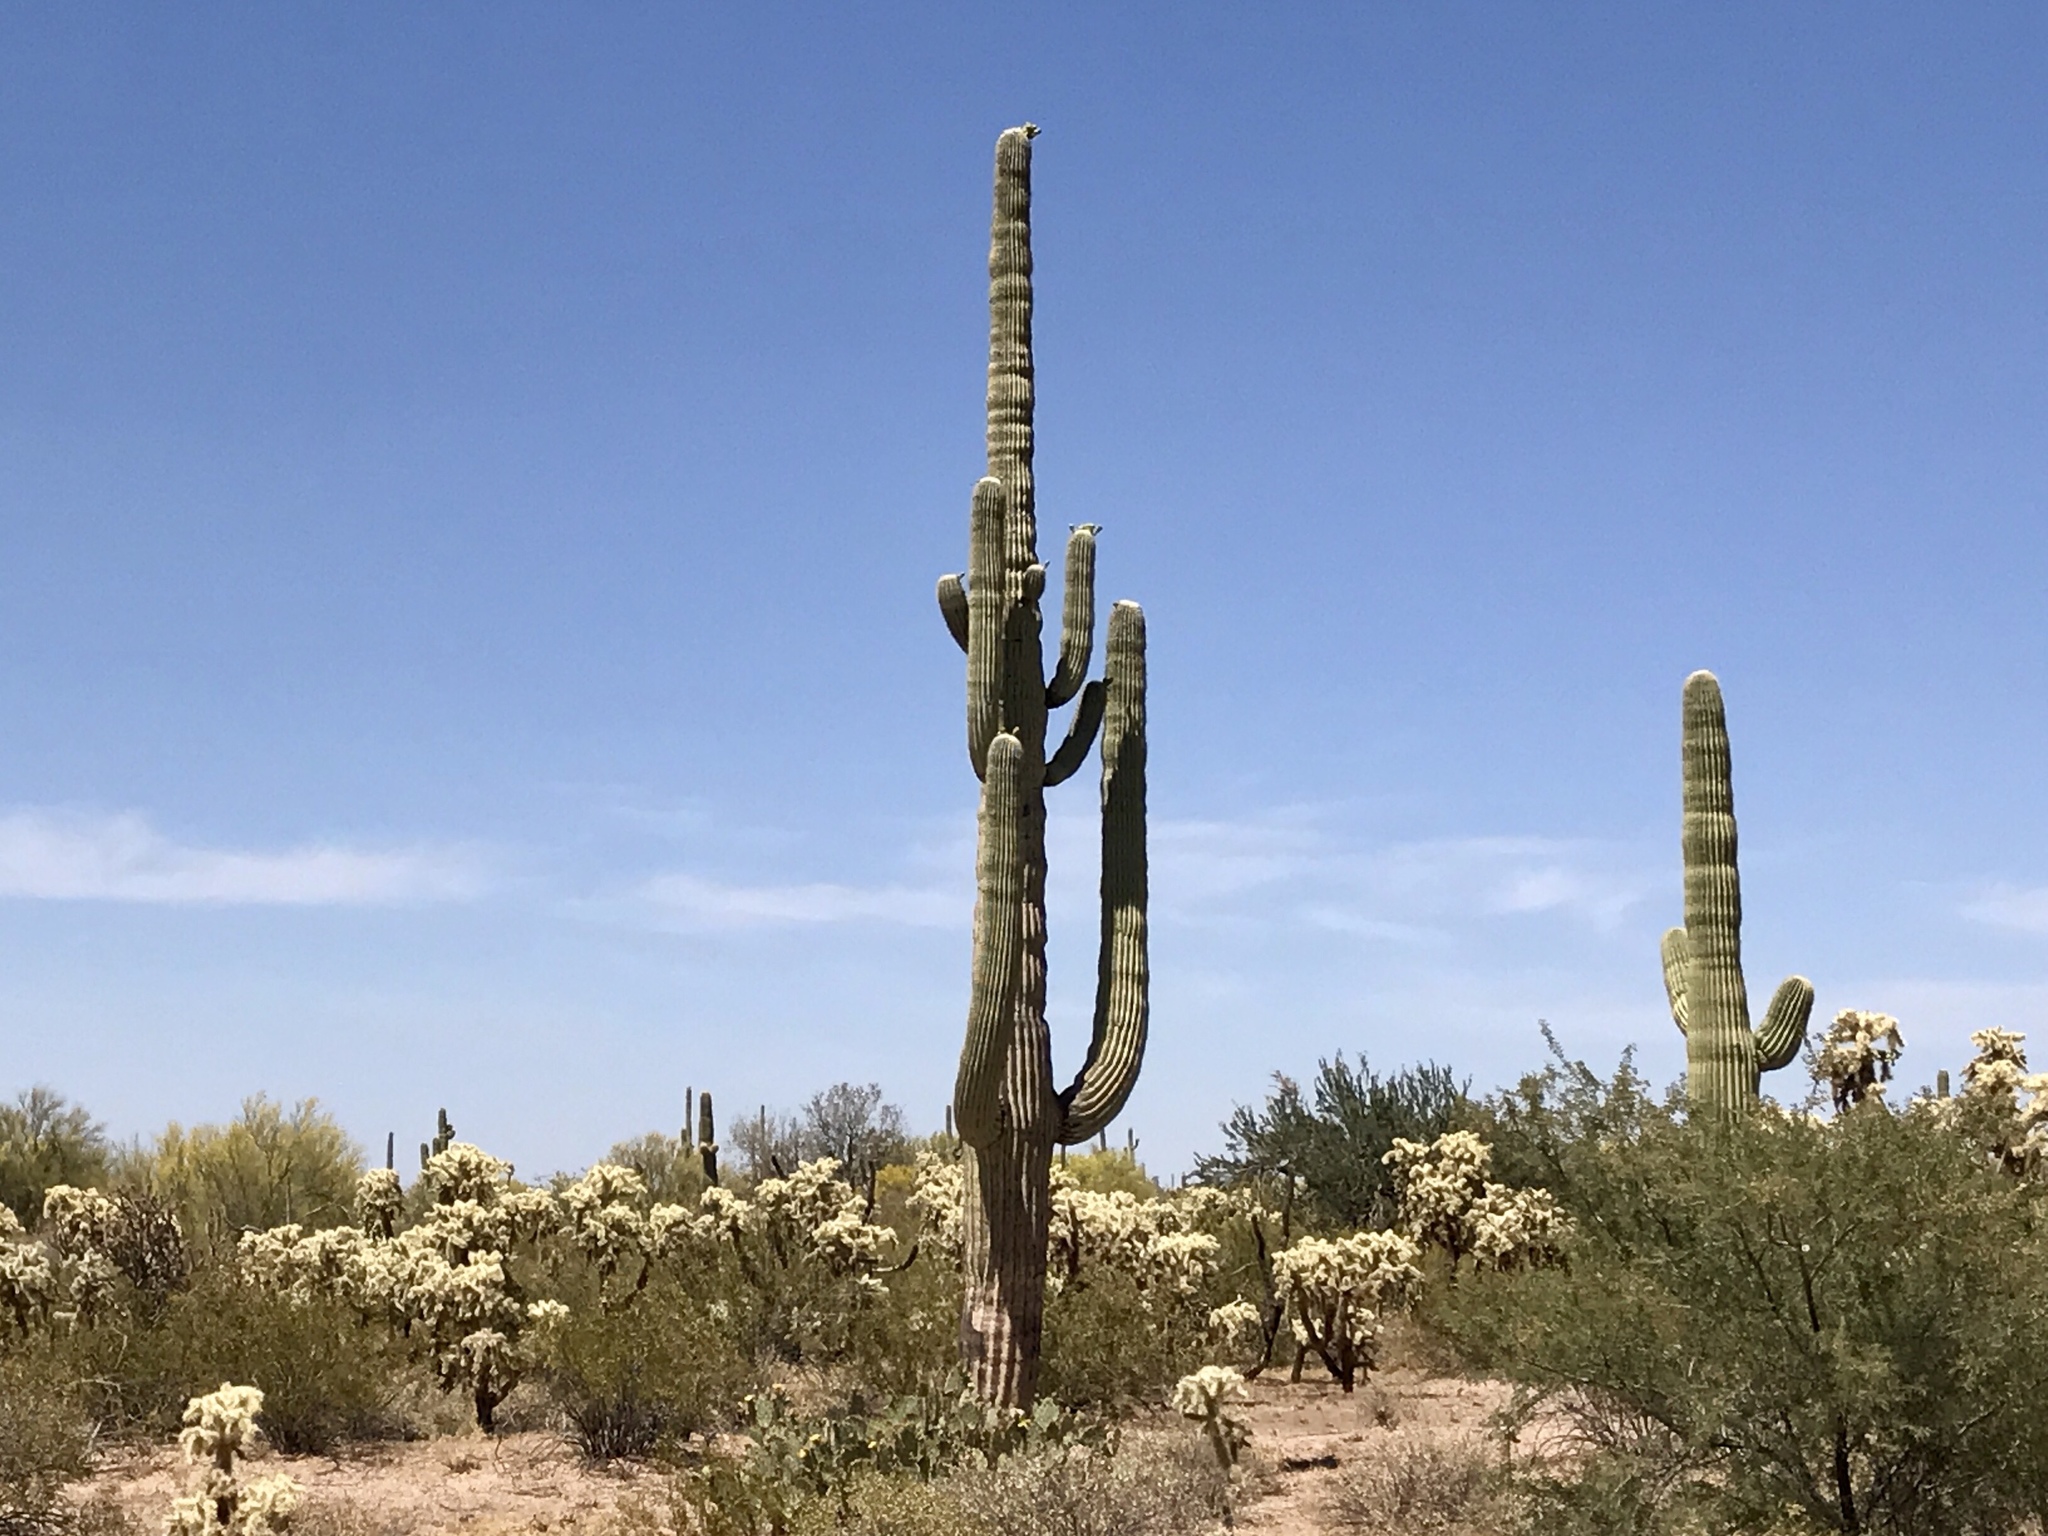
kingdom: Plantae
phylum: Tracheophyta
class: Magnoliopsida
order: Caryophyllales
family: Cactaceae
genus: Carnegiea
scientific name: Carnegiea gigantea
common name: Saguaro
